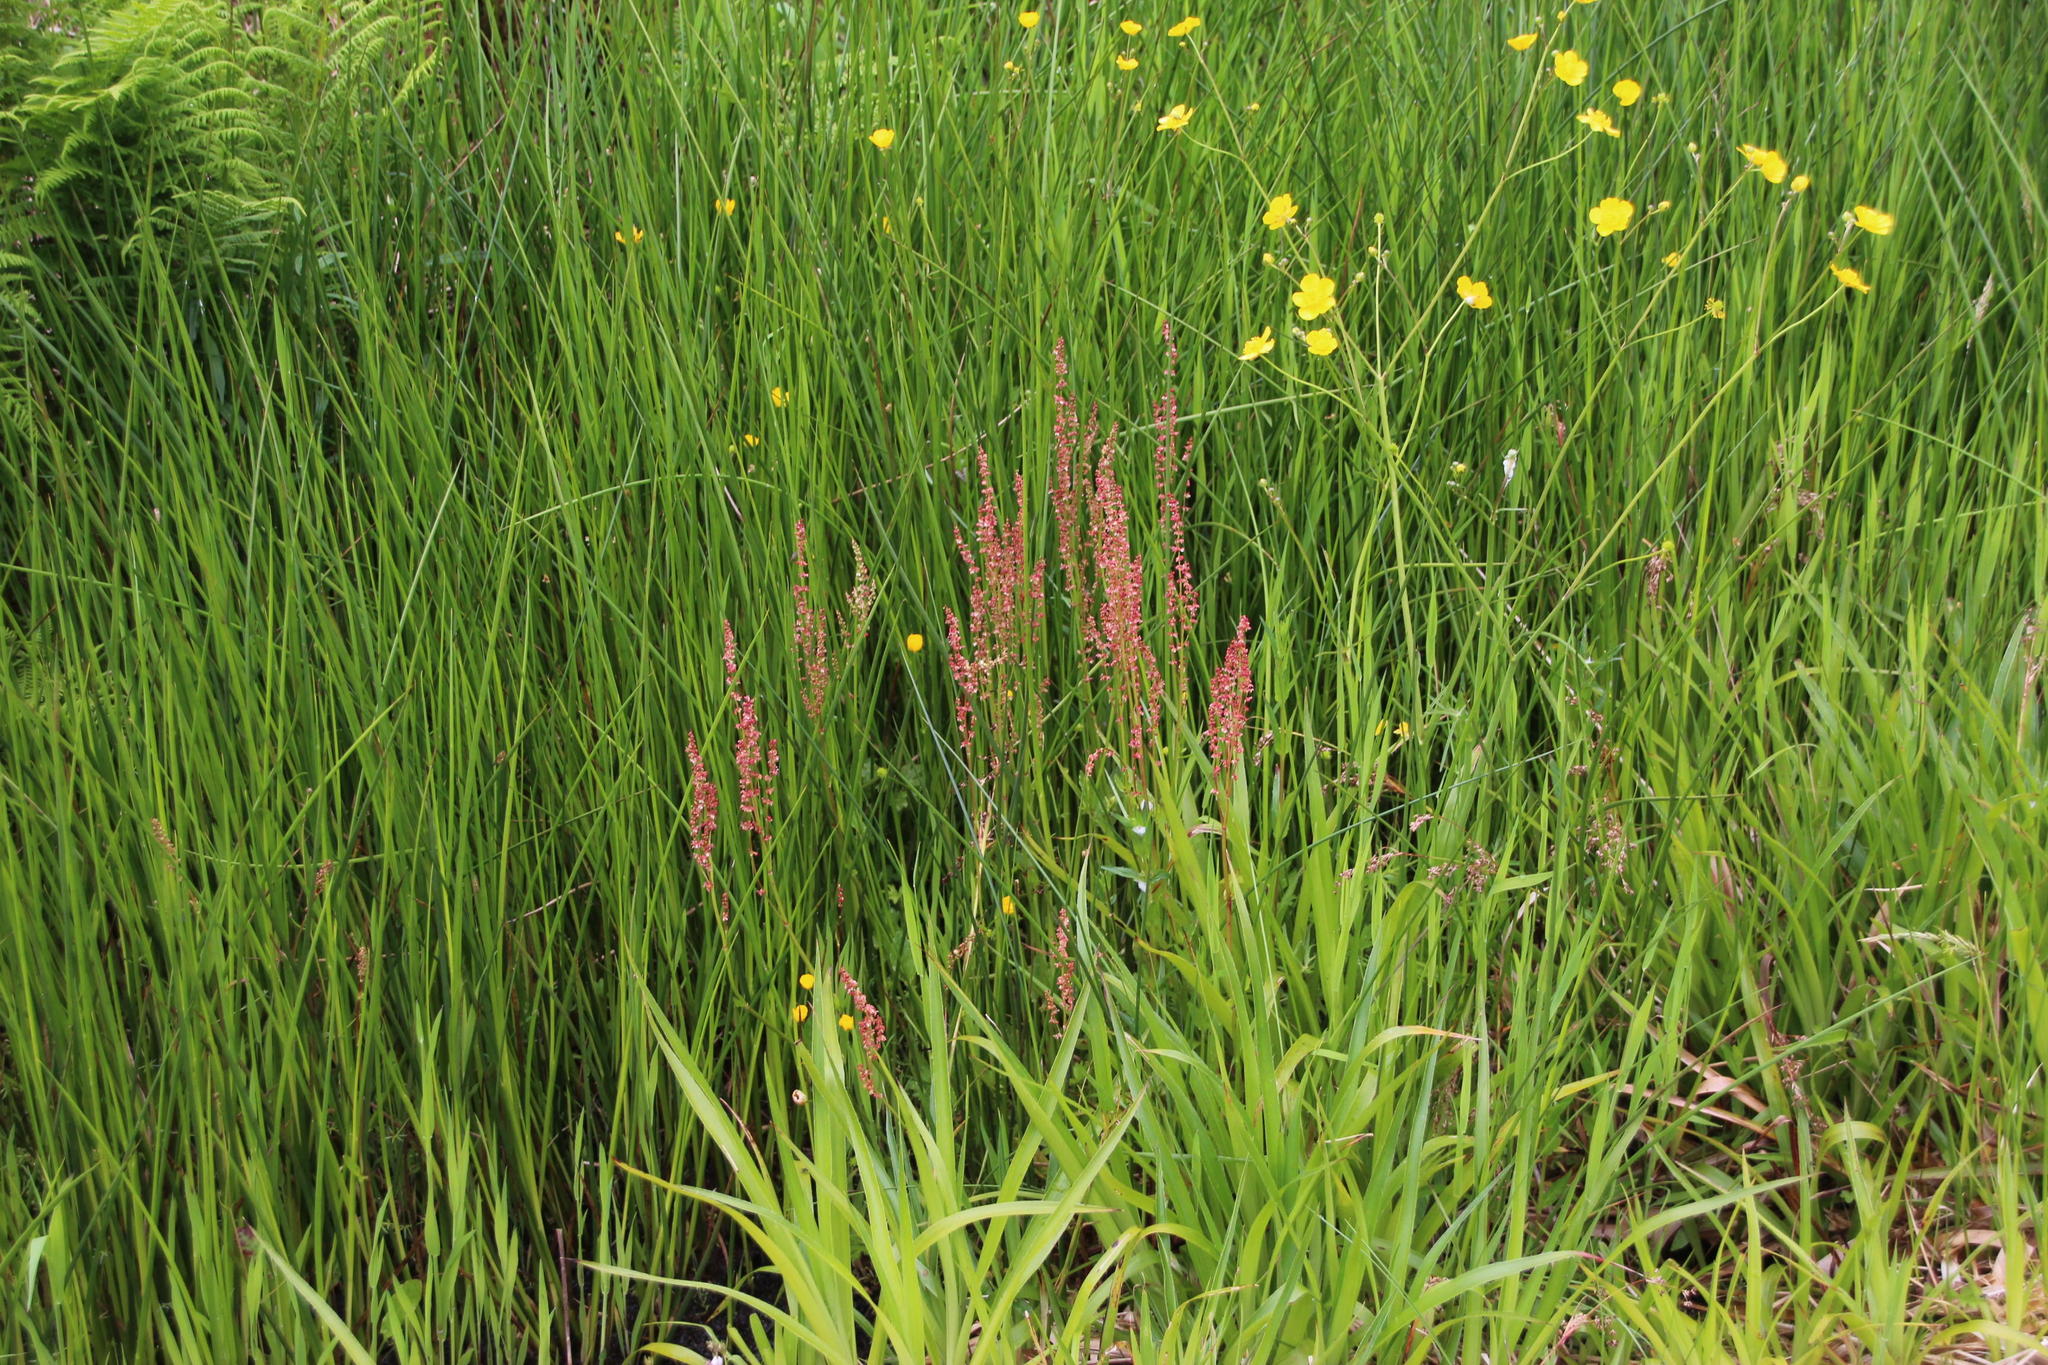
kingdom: Plantae
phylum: Tracheophyta
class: Magnoliopsida
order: Caryophyllales
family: Polygonaceae
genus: Rumex
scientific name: Rumex
